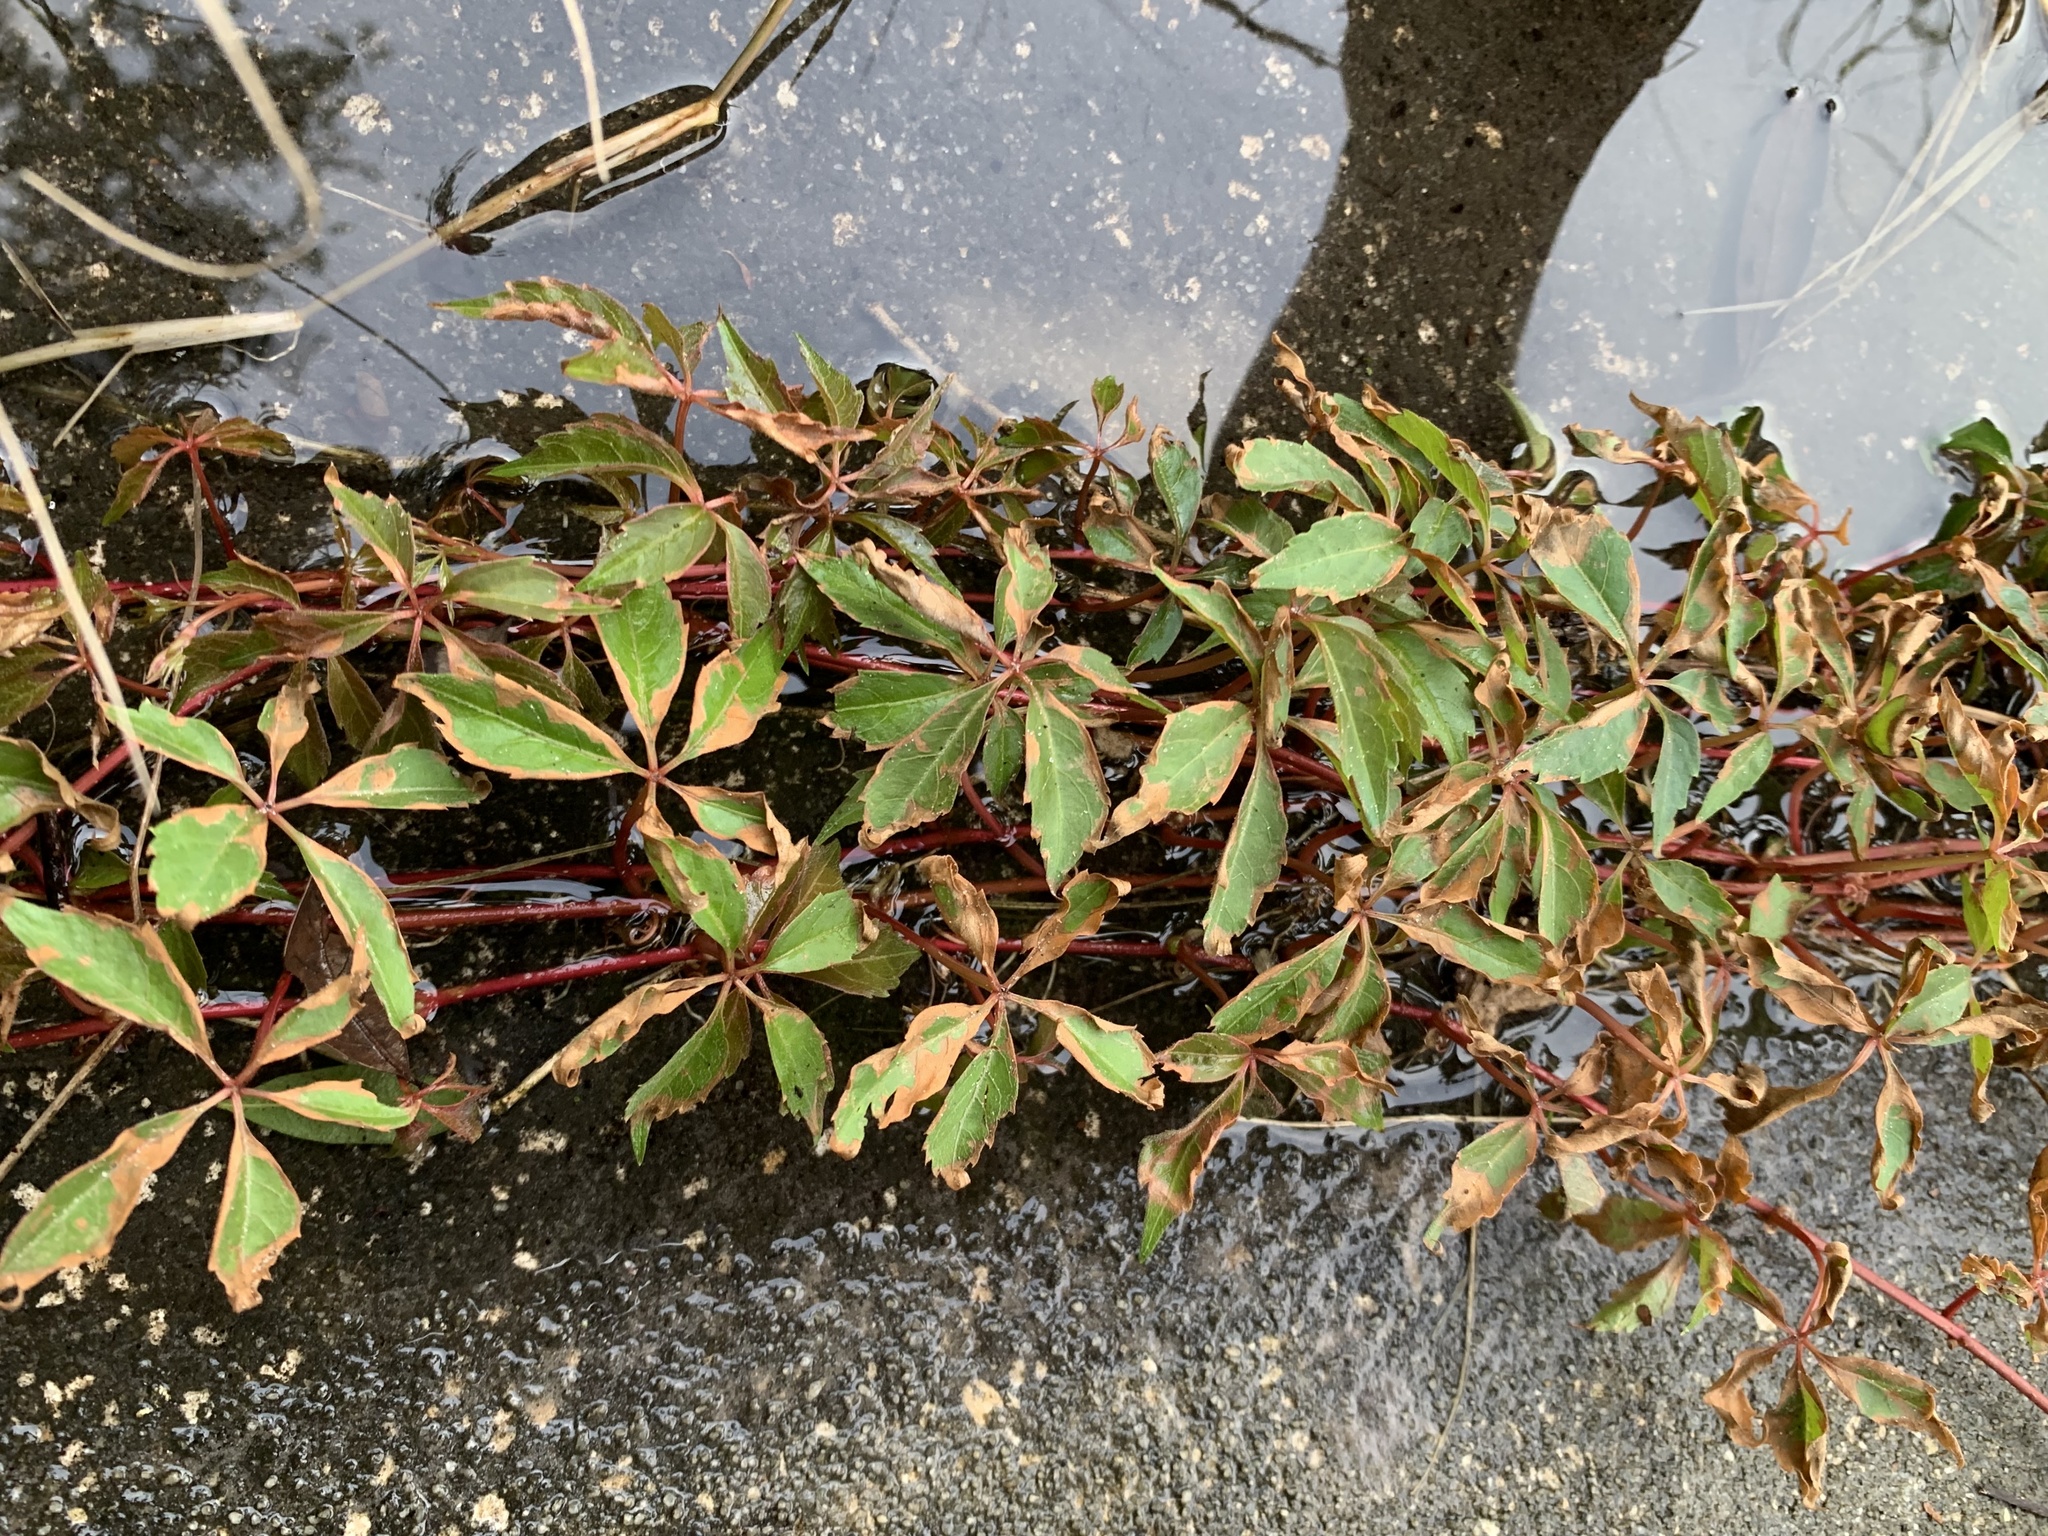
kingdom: Plantae
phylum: Tracheophyta
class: Magnoliopsida
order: Vitales
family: Vitaceae
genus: Parthenocissus
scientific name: Parthenocissus quinquefolia
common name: Virginia-creeper
